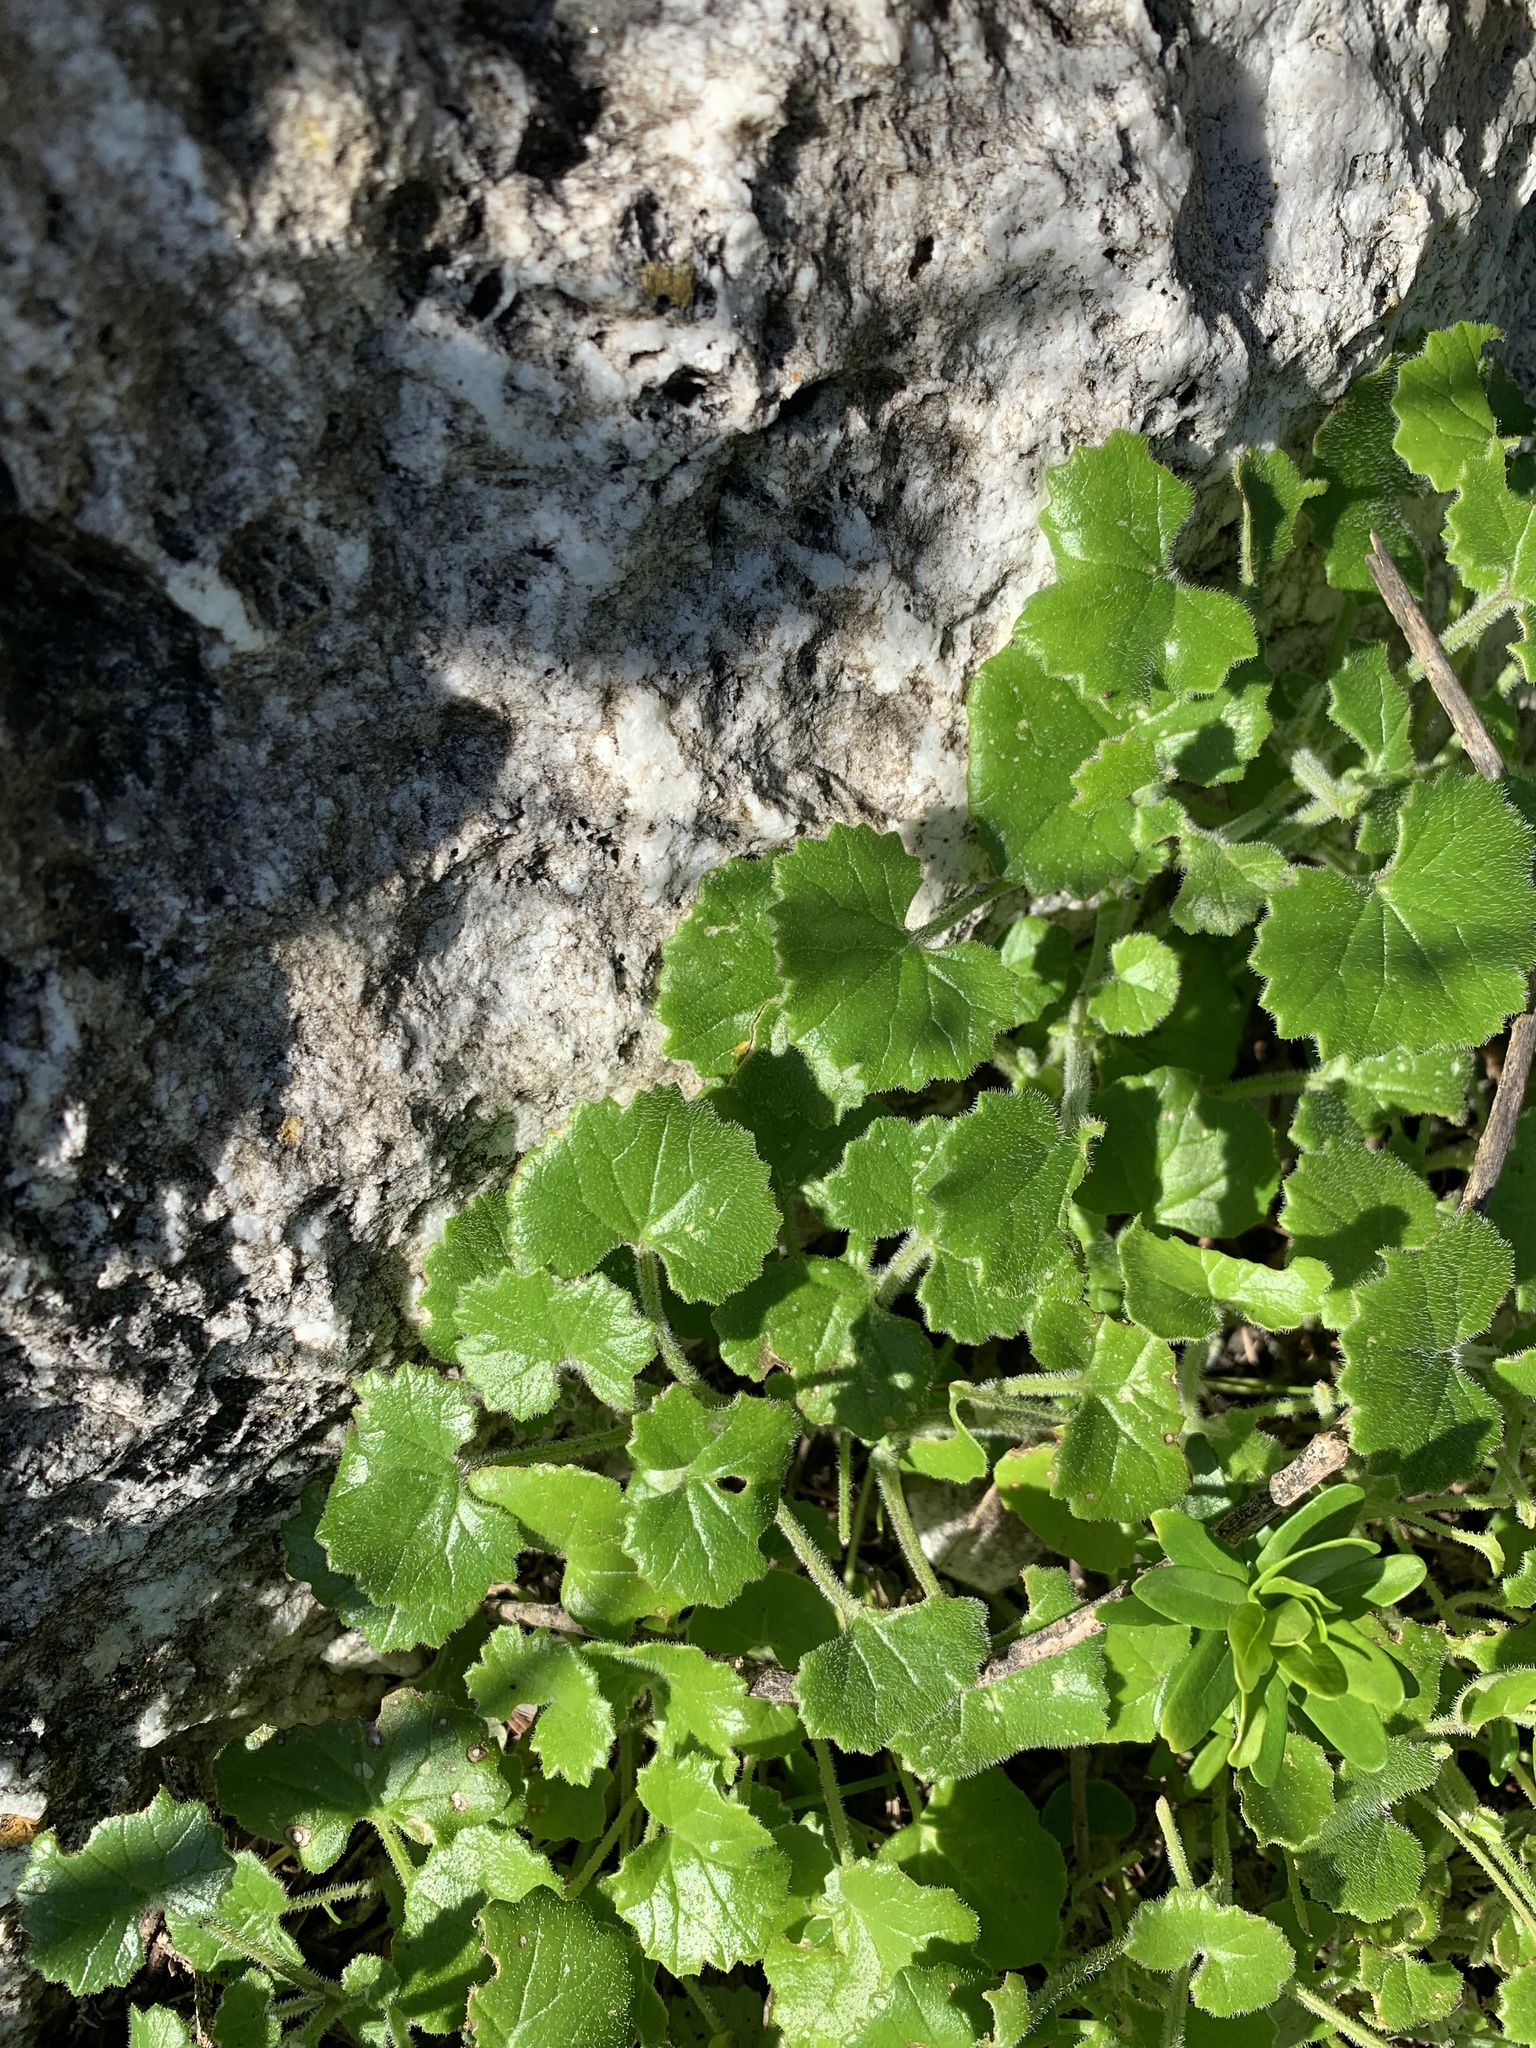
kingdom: Plantae
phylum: Tracheophyta
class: Magnoliopsida
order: Asterales
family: Asteraceae
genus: Cineraria
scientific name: Cineraria geifolia
